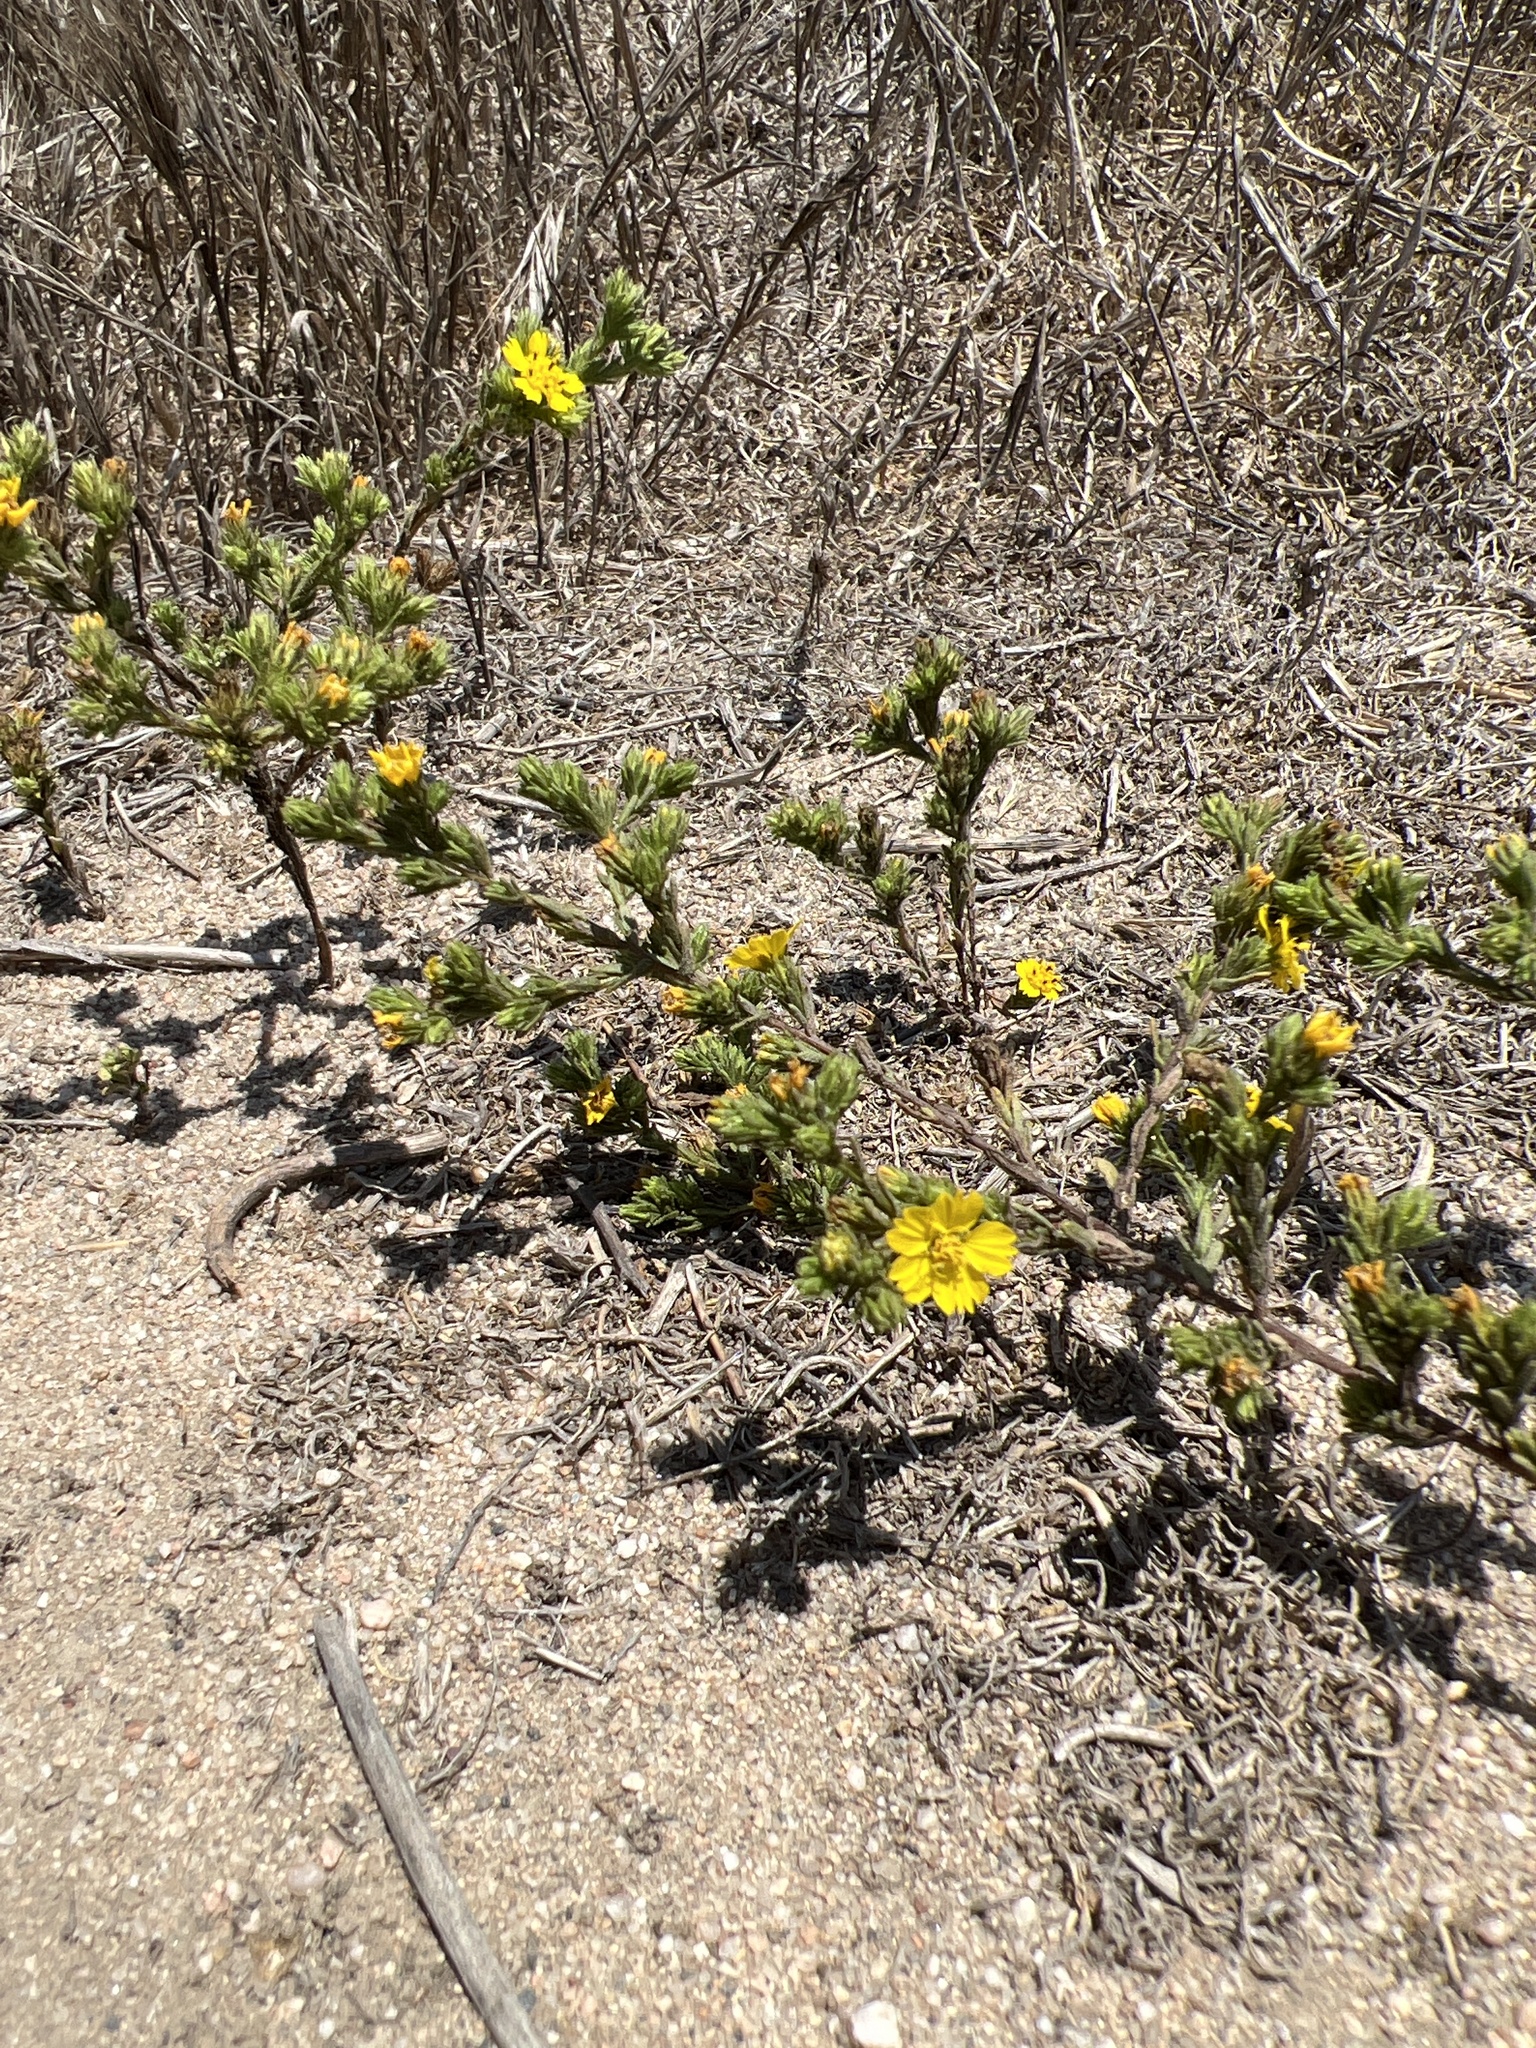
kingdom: Plantae
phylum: Tracheophyta
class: Magnoliopsida
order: Asterales
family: Asteraceae
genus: Deinandra
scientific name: Deinandra fasciculata
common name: Clustered tarweed
